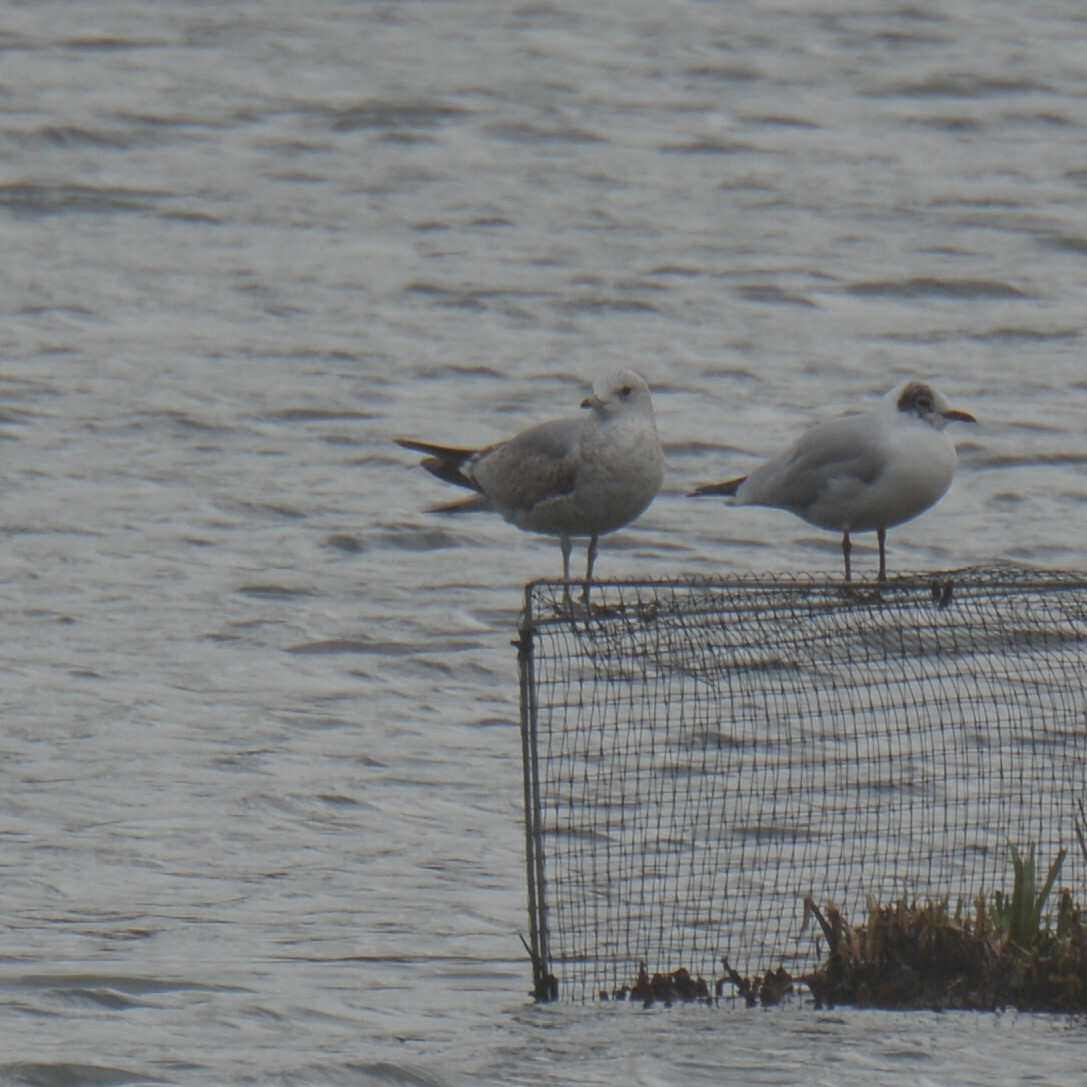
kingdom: Animalia
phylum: Chordata
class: Aves
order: Charadriiformes
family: Laridae
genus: Larus
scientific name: Larus canus
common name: Mew gull
